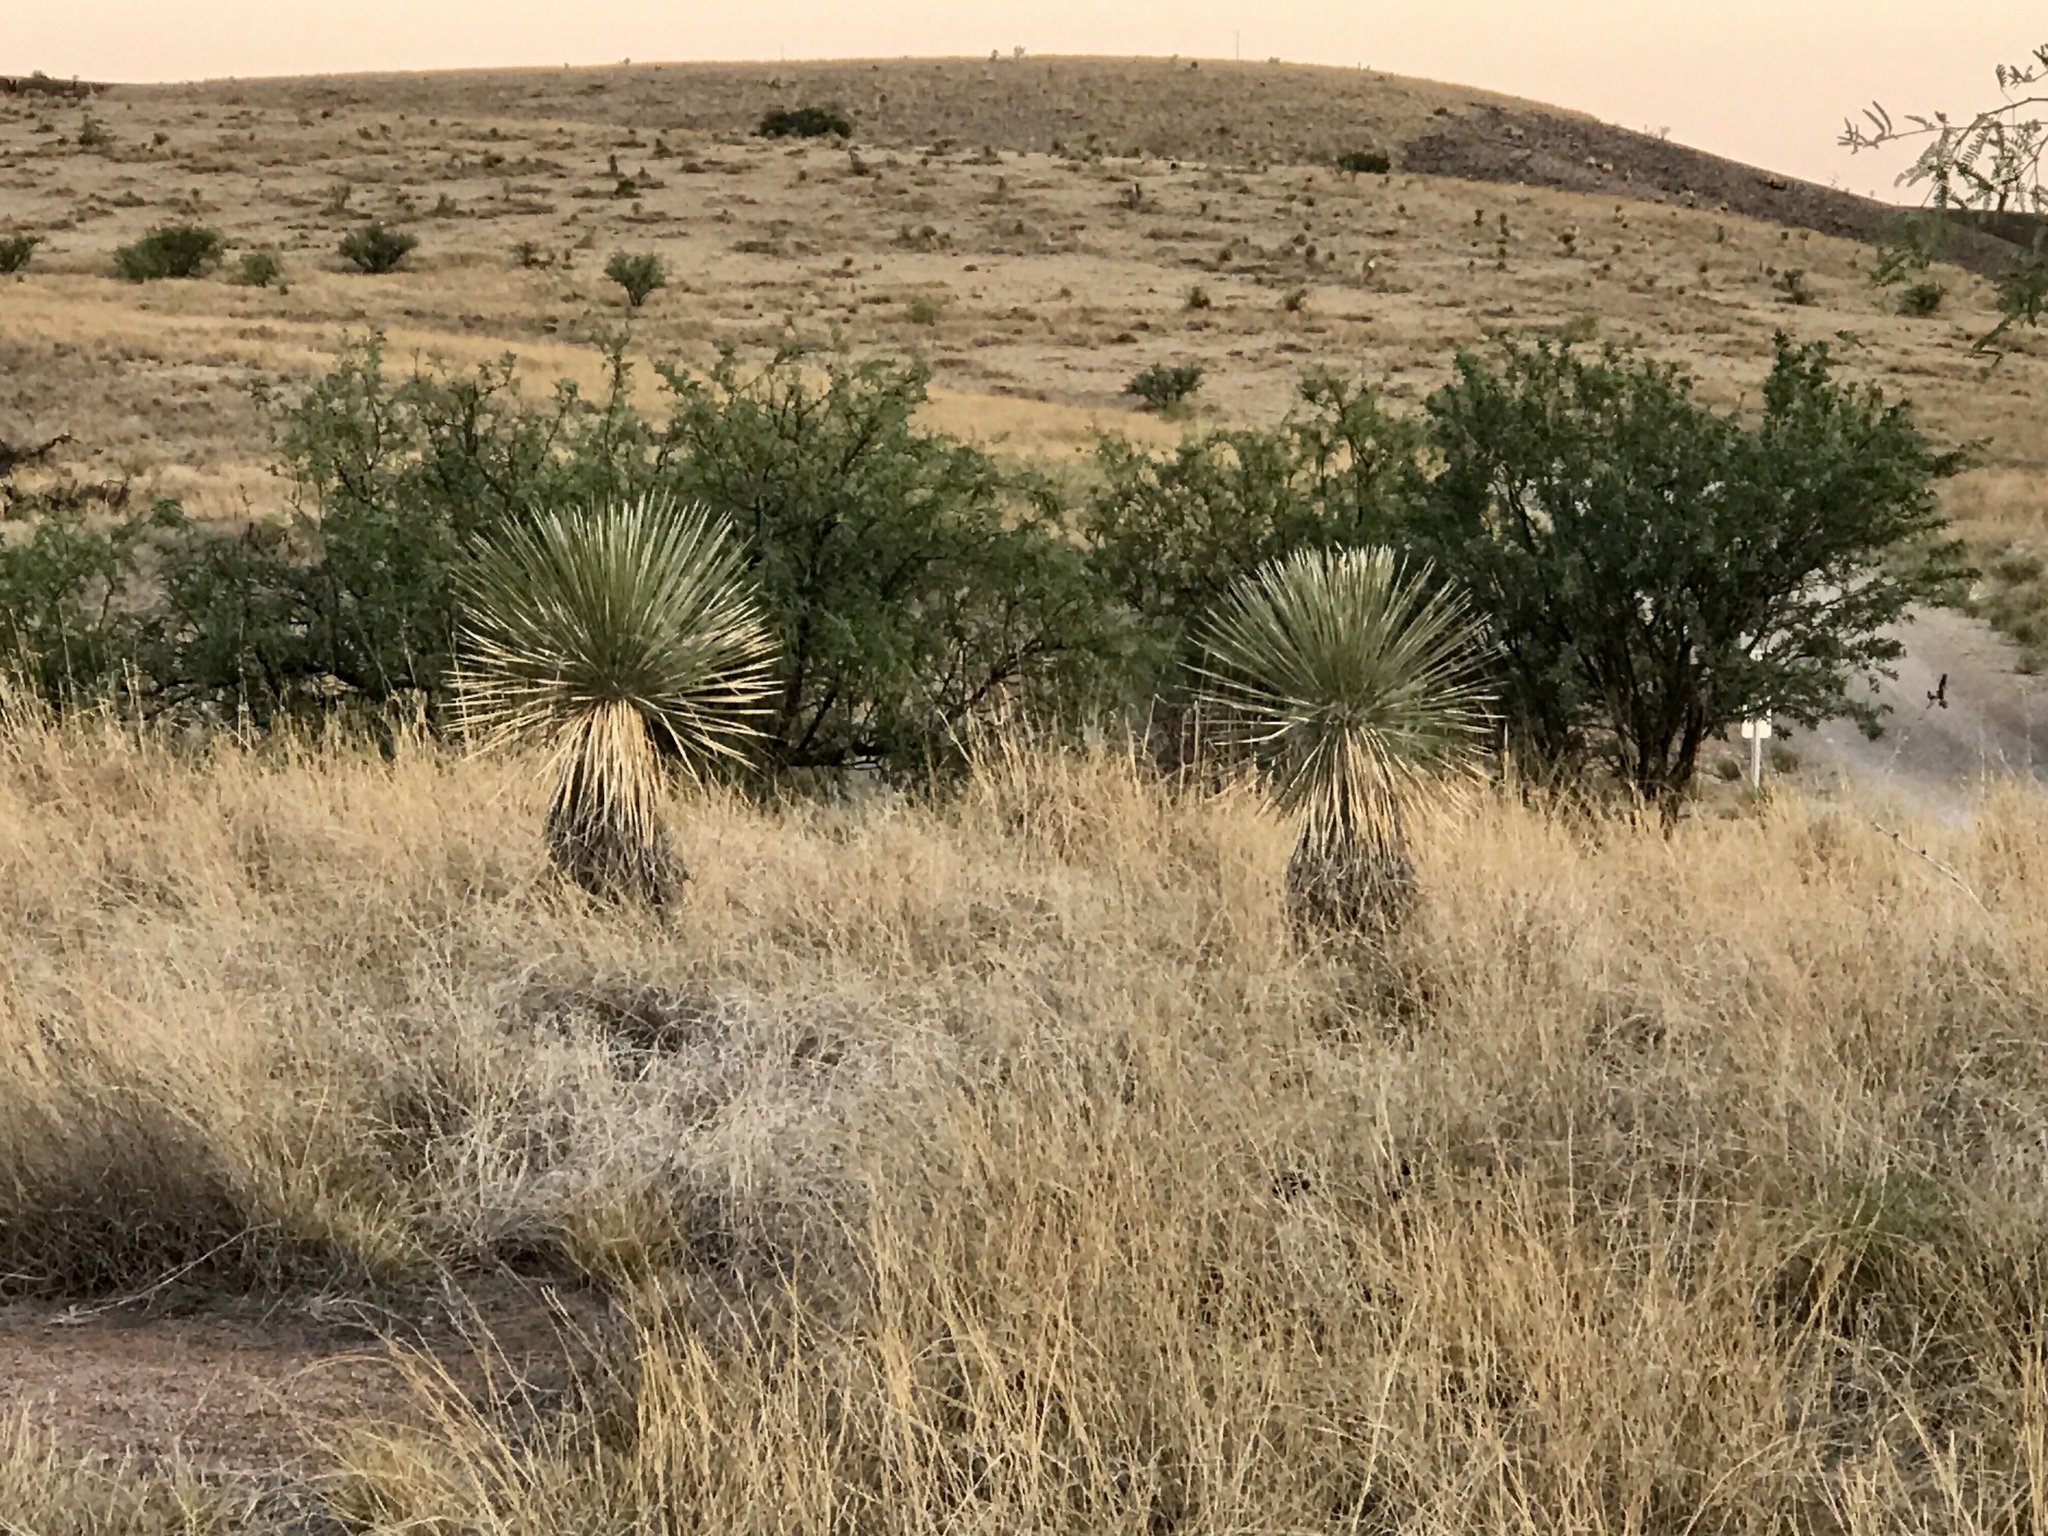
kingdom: Plantae
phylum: Tracheophyta
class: Liliopsida
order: Asparagales
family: Asparagaceae
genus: Yucca
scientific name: Yucca elata
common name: Palmella
